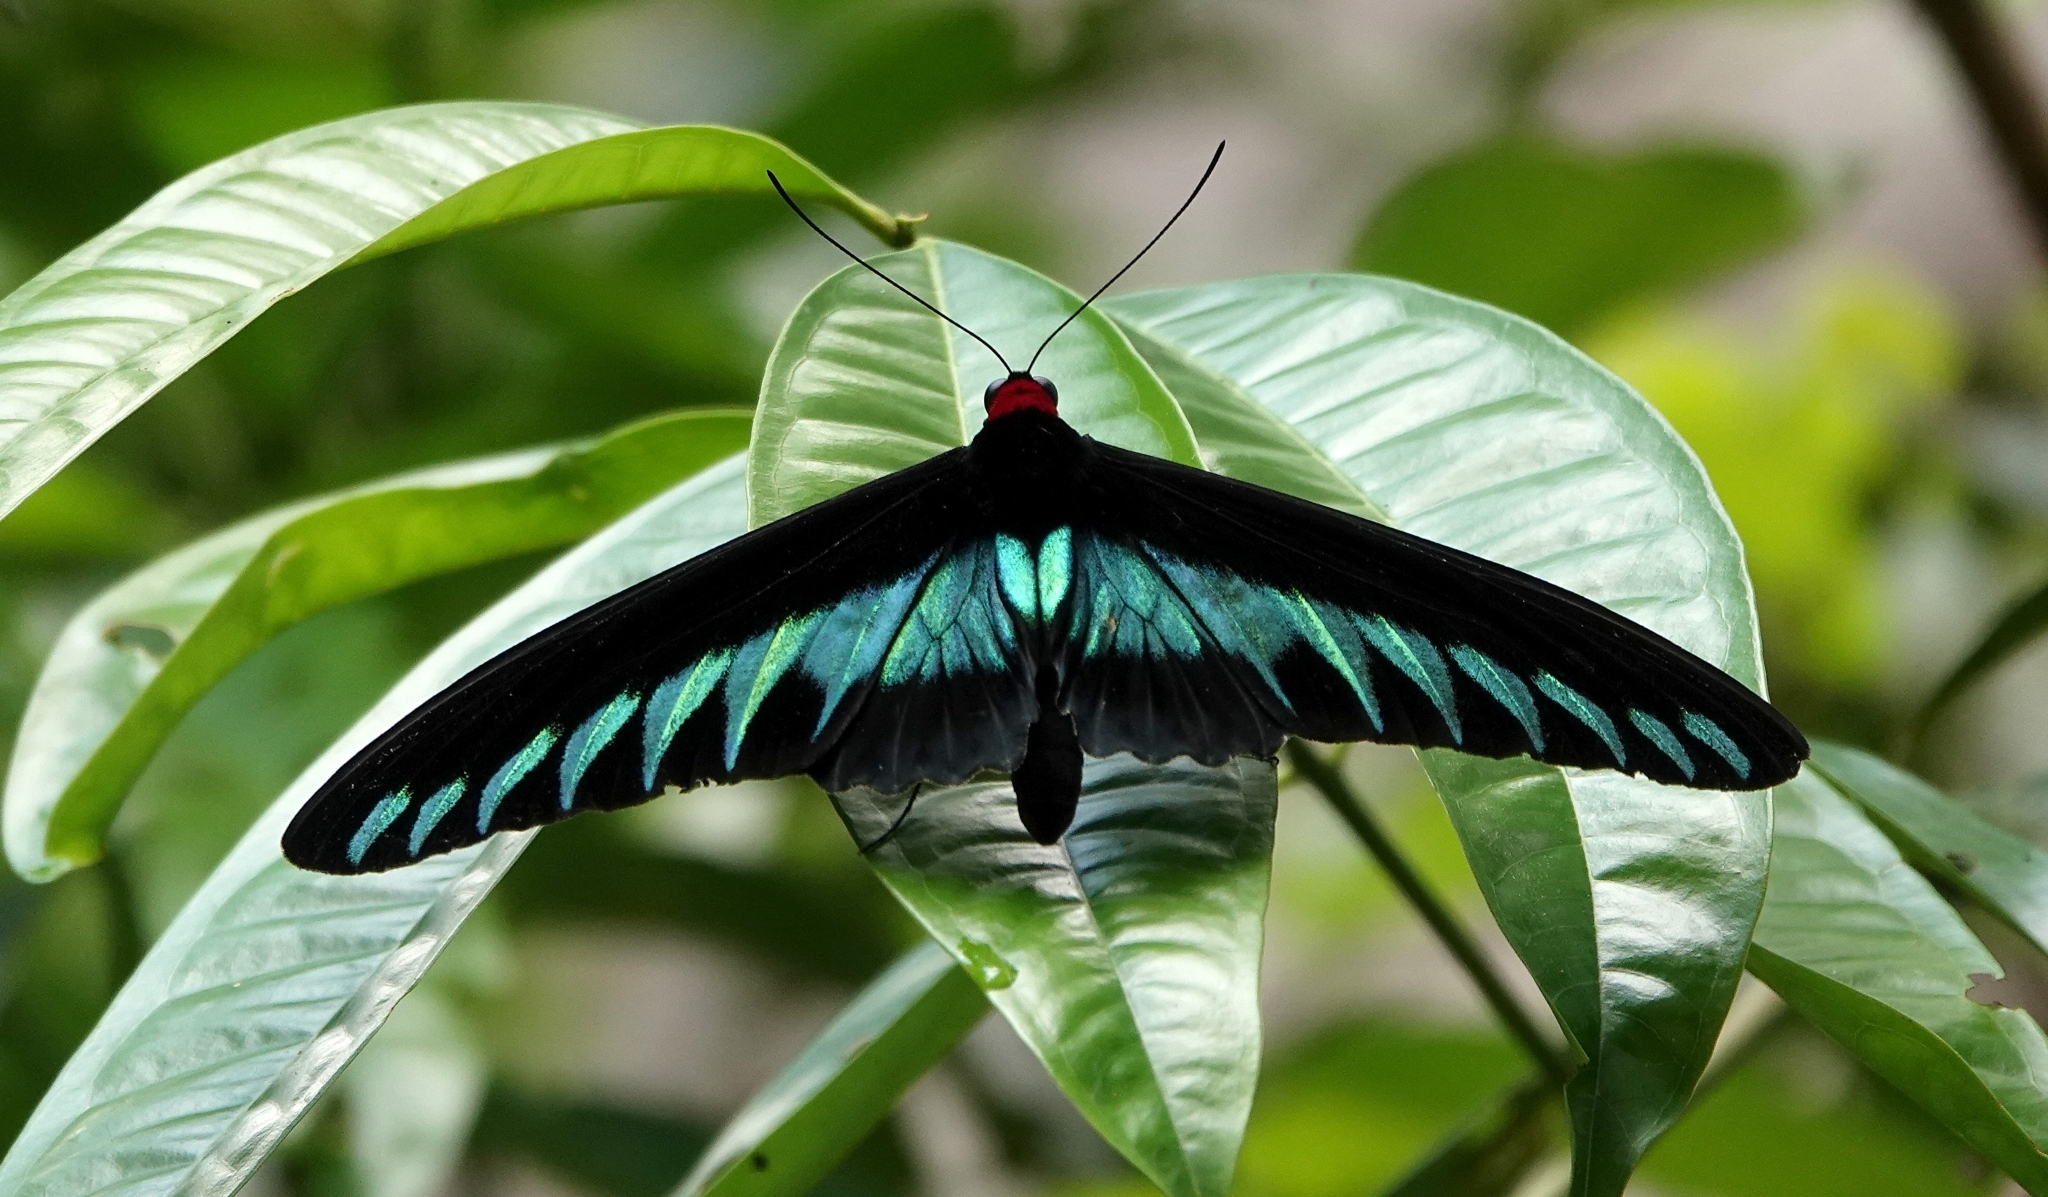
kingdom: Animalia
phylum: Arthropoda
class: Insecta
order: Lepidoptera
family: Papilionidae
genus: Trogonoptera
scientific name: Trogonoptera brookiana
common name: Raja brooke's birdwing
